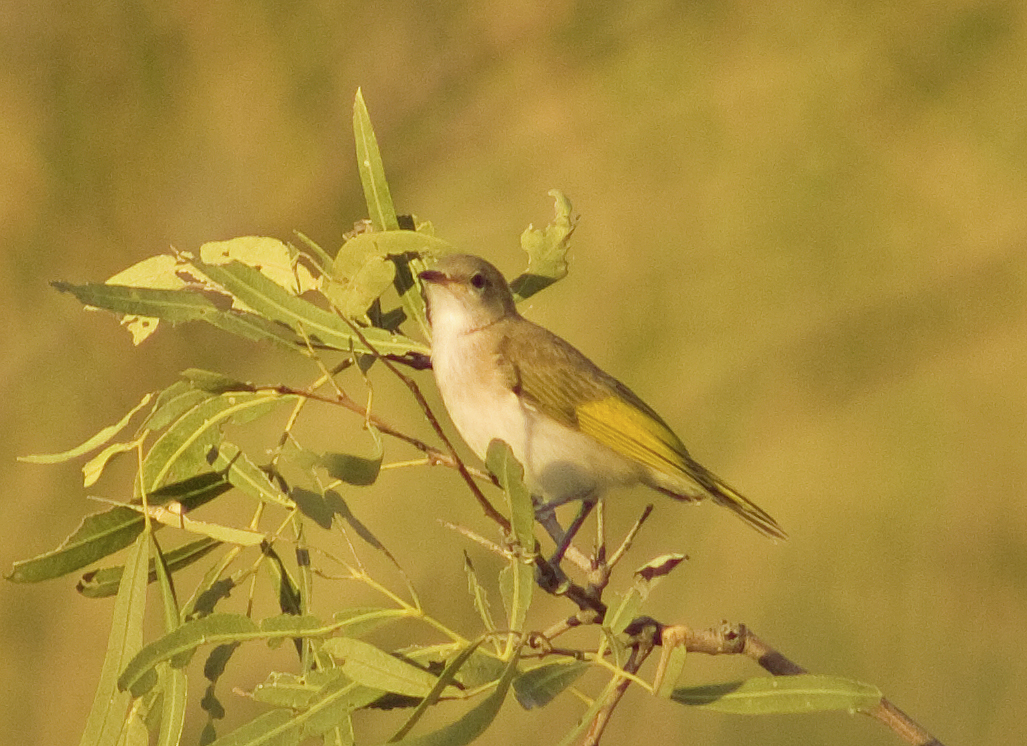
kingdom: Animalia
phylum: Chordata
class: Aves
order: Passeriformes
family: Meliphagidae
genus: Conopophila
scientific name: Conopophila rufogularis
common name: Rufous-throated honeyeater
